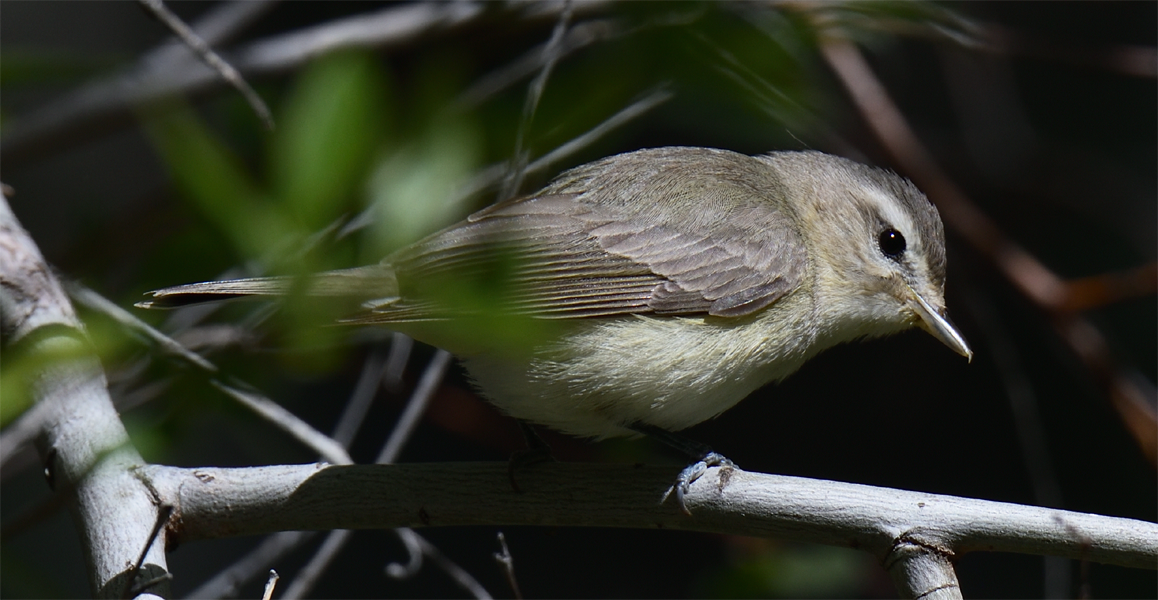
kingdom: Animalia
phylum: Chordata
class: Aves
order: Passeriformes
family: Vireonidae
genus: Vireo
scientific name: Vireo gilvus
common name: Warbling vireo
